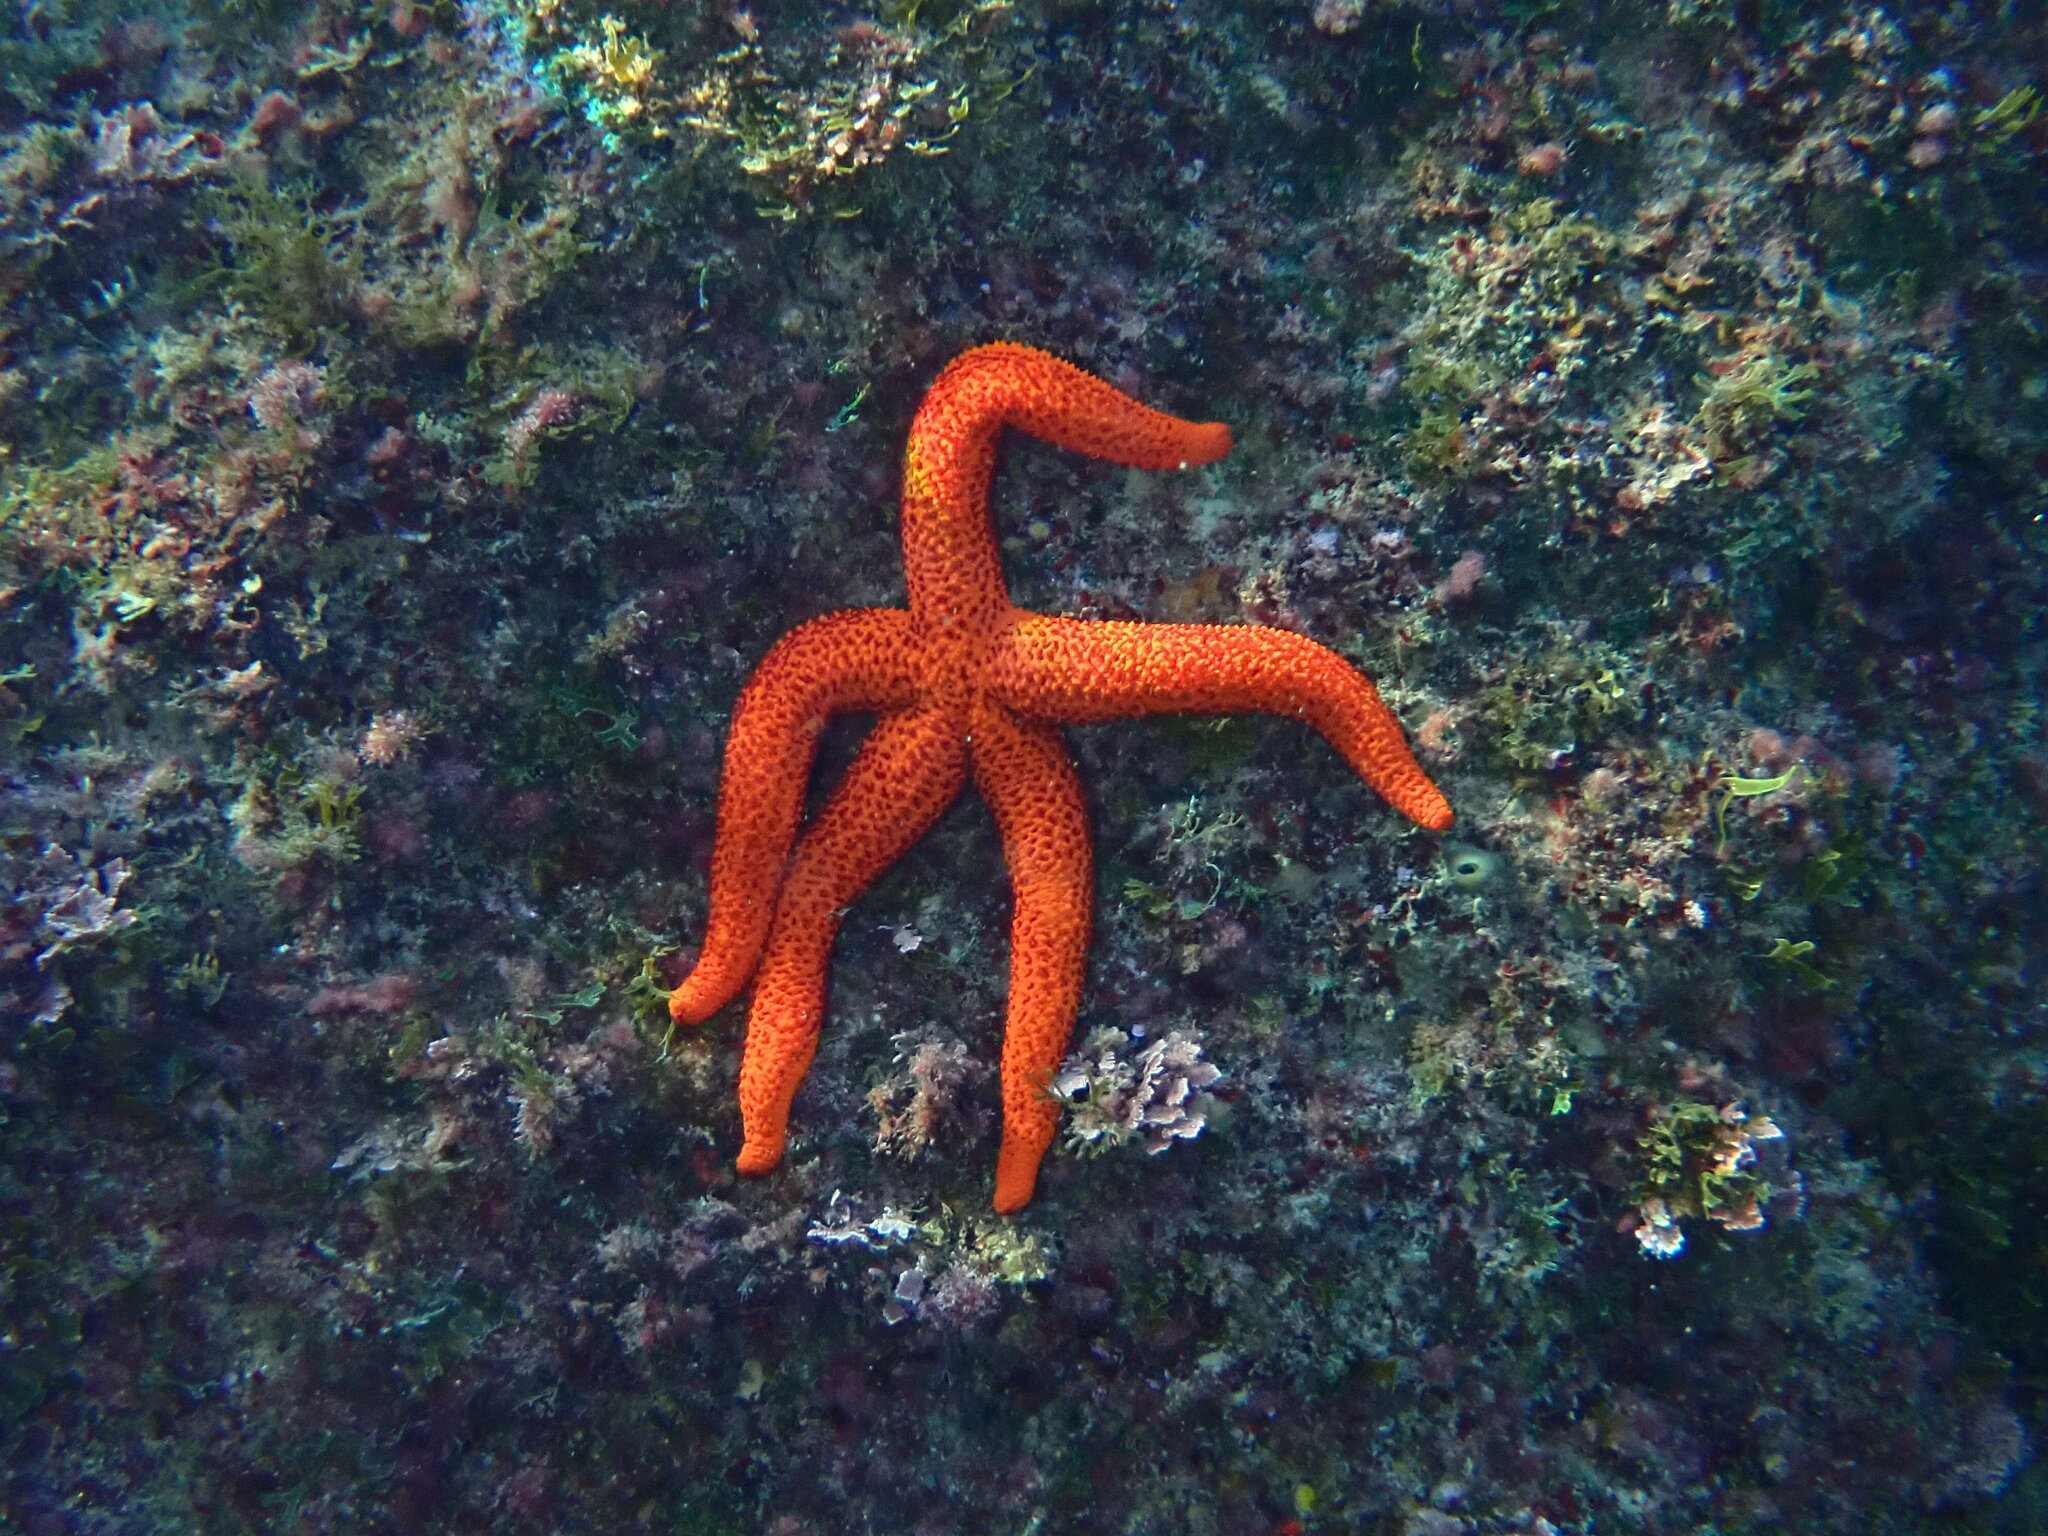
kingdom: Animalia
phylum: Echinodermata
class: Asteroidea
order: Spinulosida
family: Echinasteridae
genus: Echinaster
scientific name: Echinaster sepositus
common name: Red starfish
